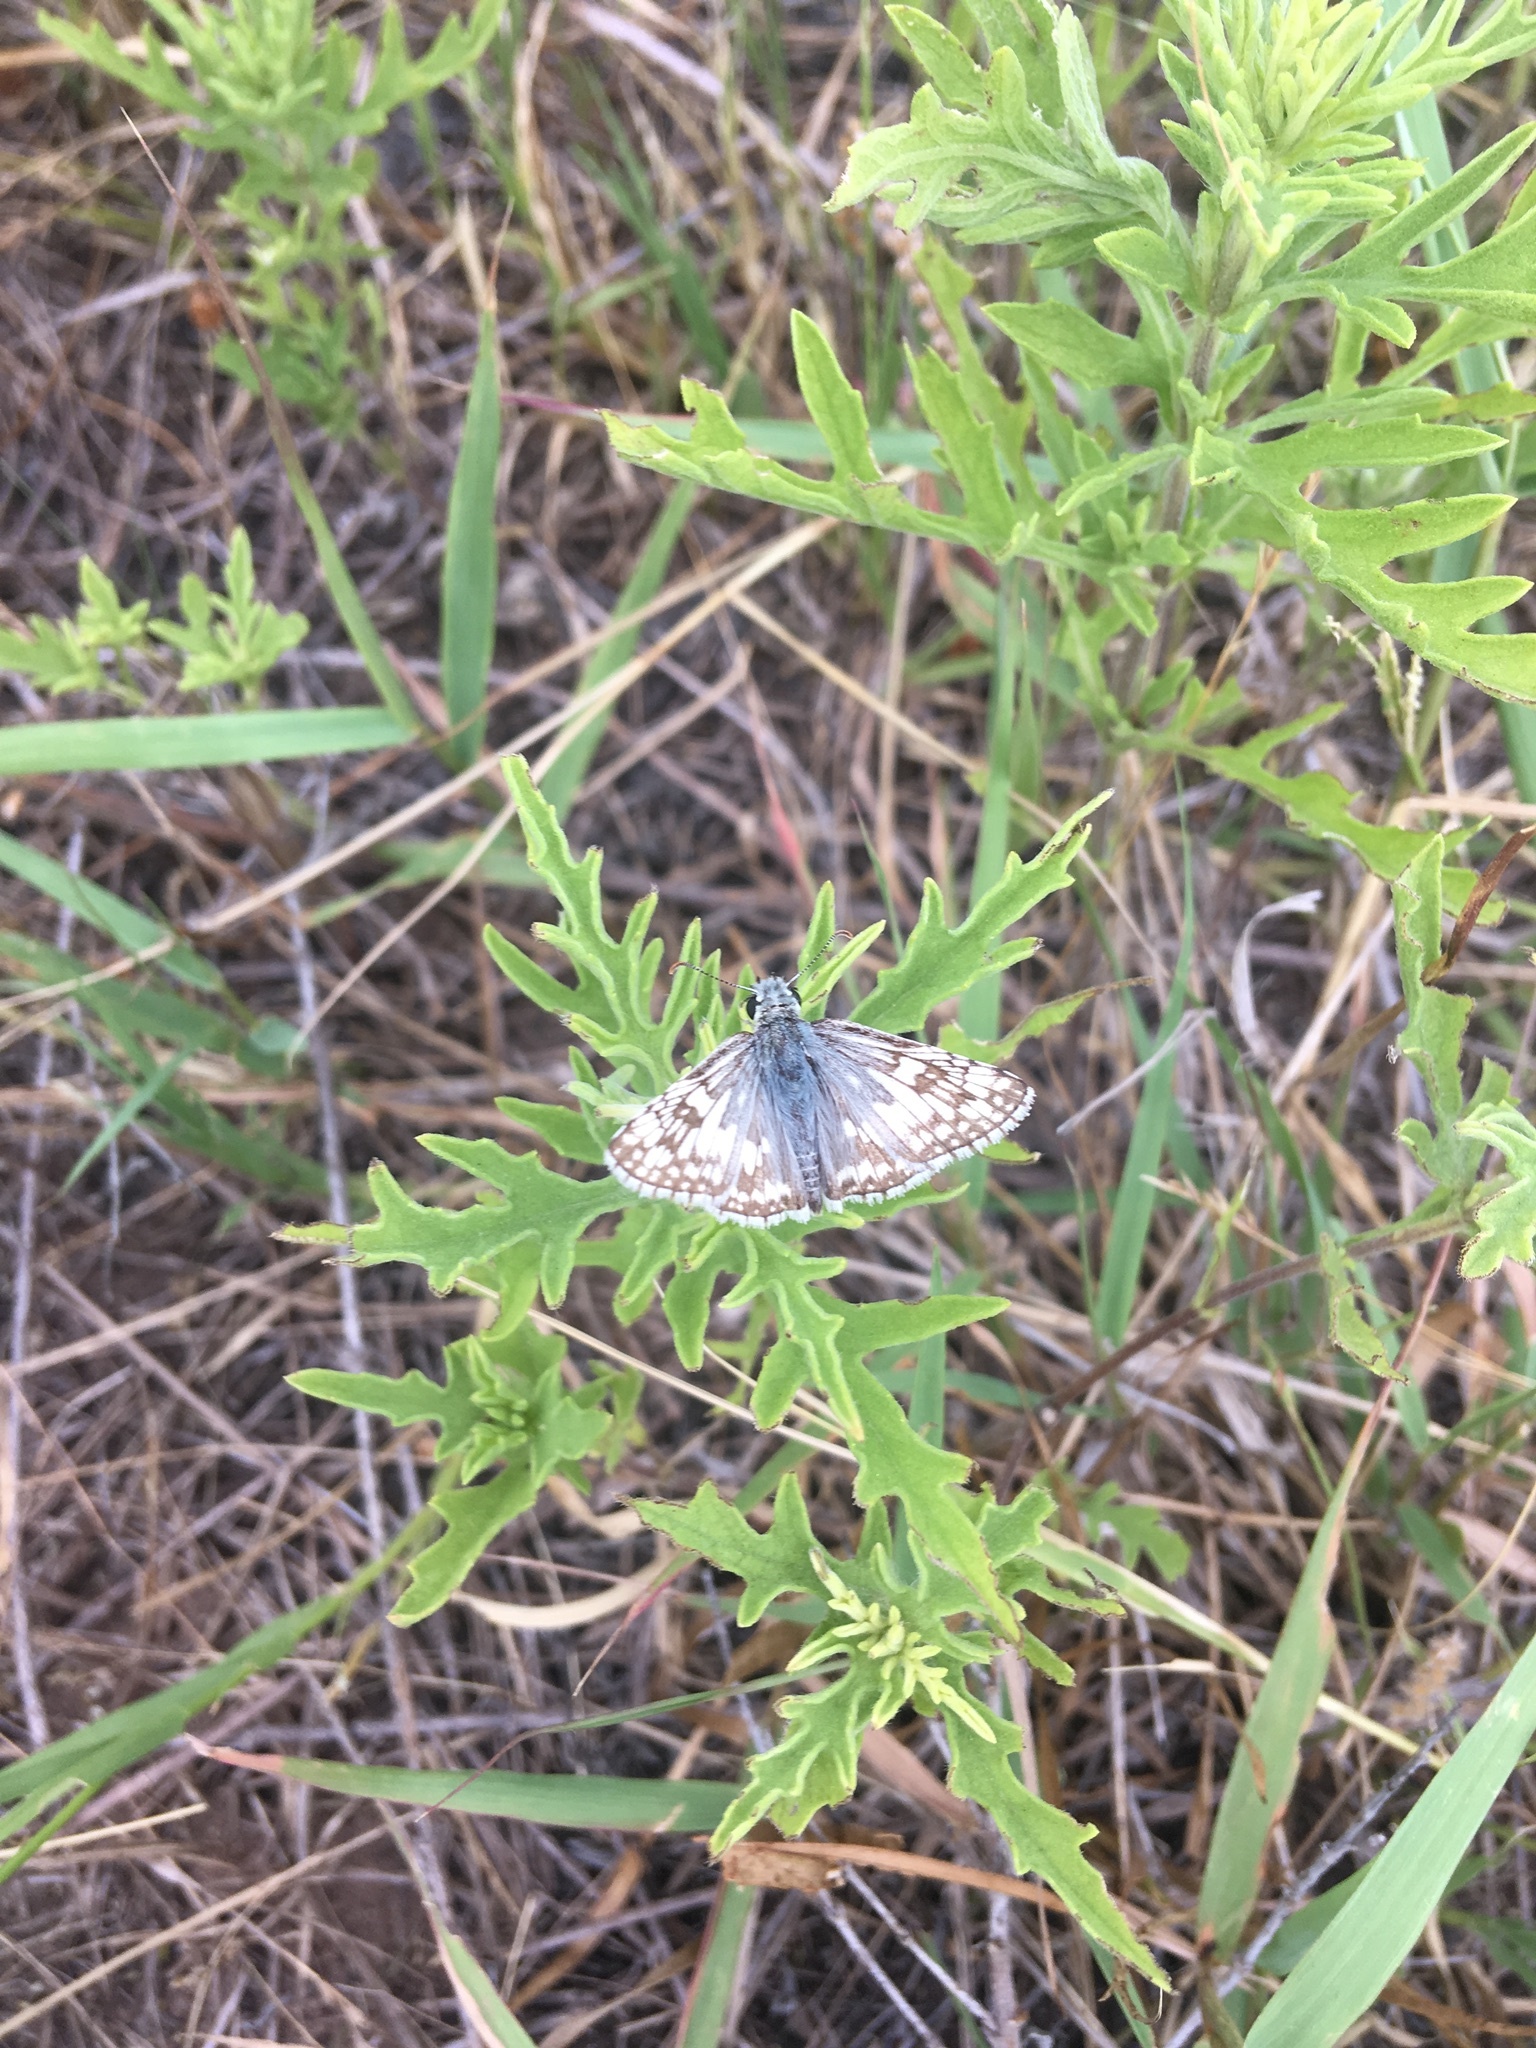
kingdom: Animalia
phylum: Arthropoda
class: Insecta
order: Lepidoptera
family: Hesperiidae
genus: Burnsius
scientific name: Burnsius communis
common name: Common checkered-skipper
